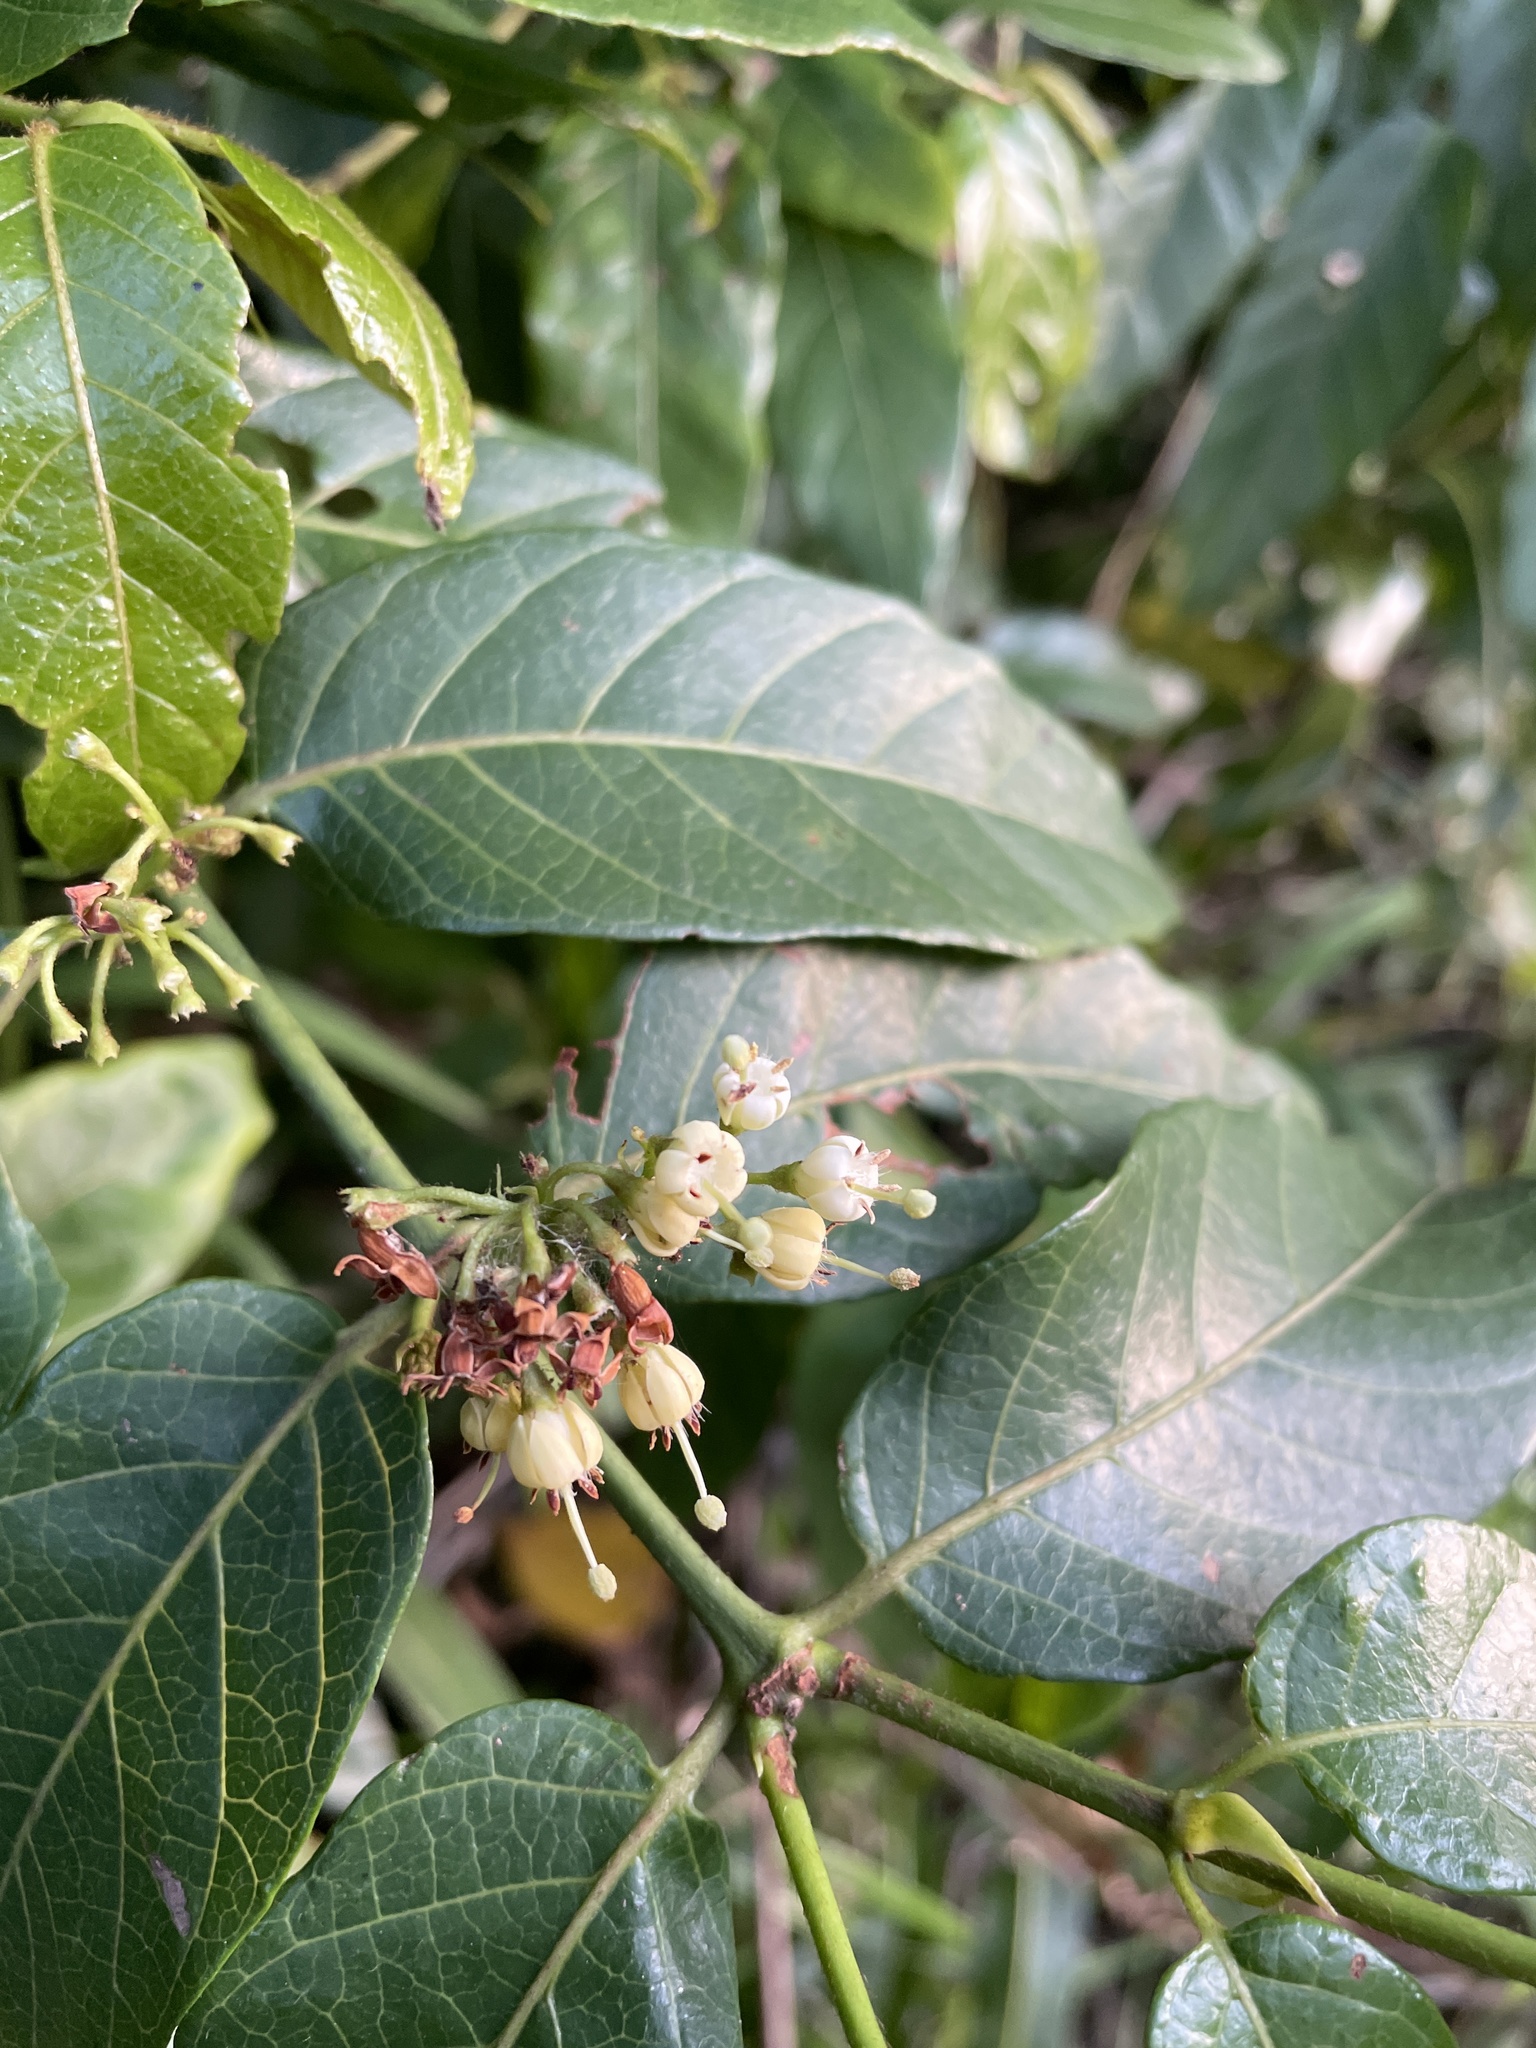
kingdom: Plantae
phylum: Tracheophyta
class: Magnoliopsida
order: Gentianales
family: Rubiaceae
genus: Keetia
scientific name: Keetia gueinzii
